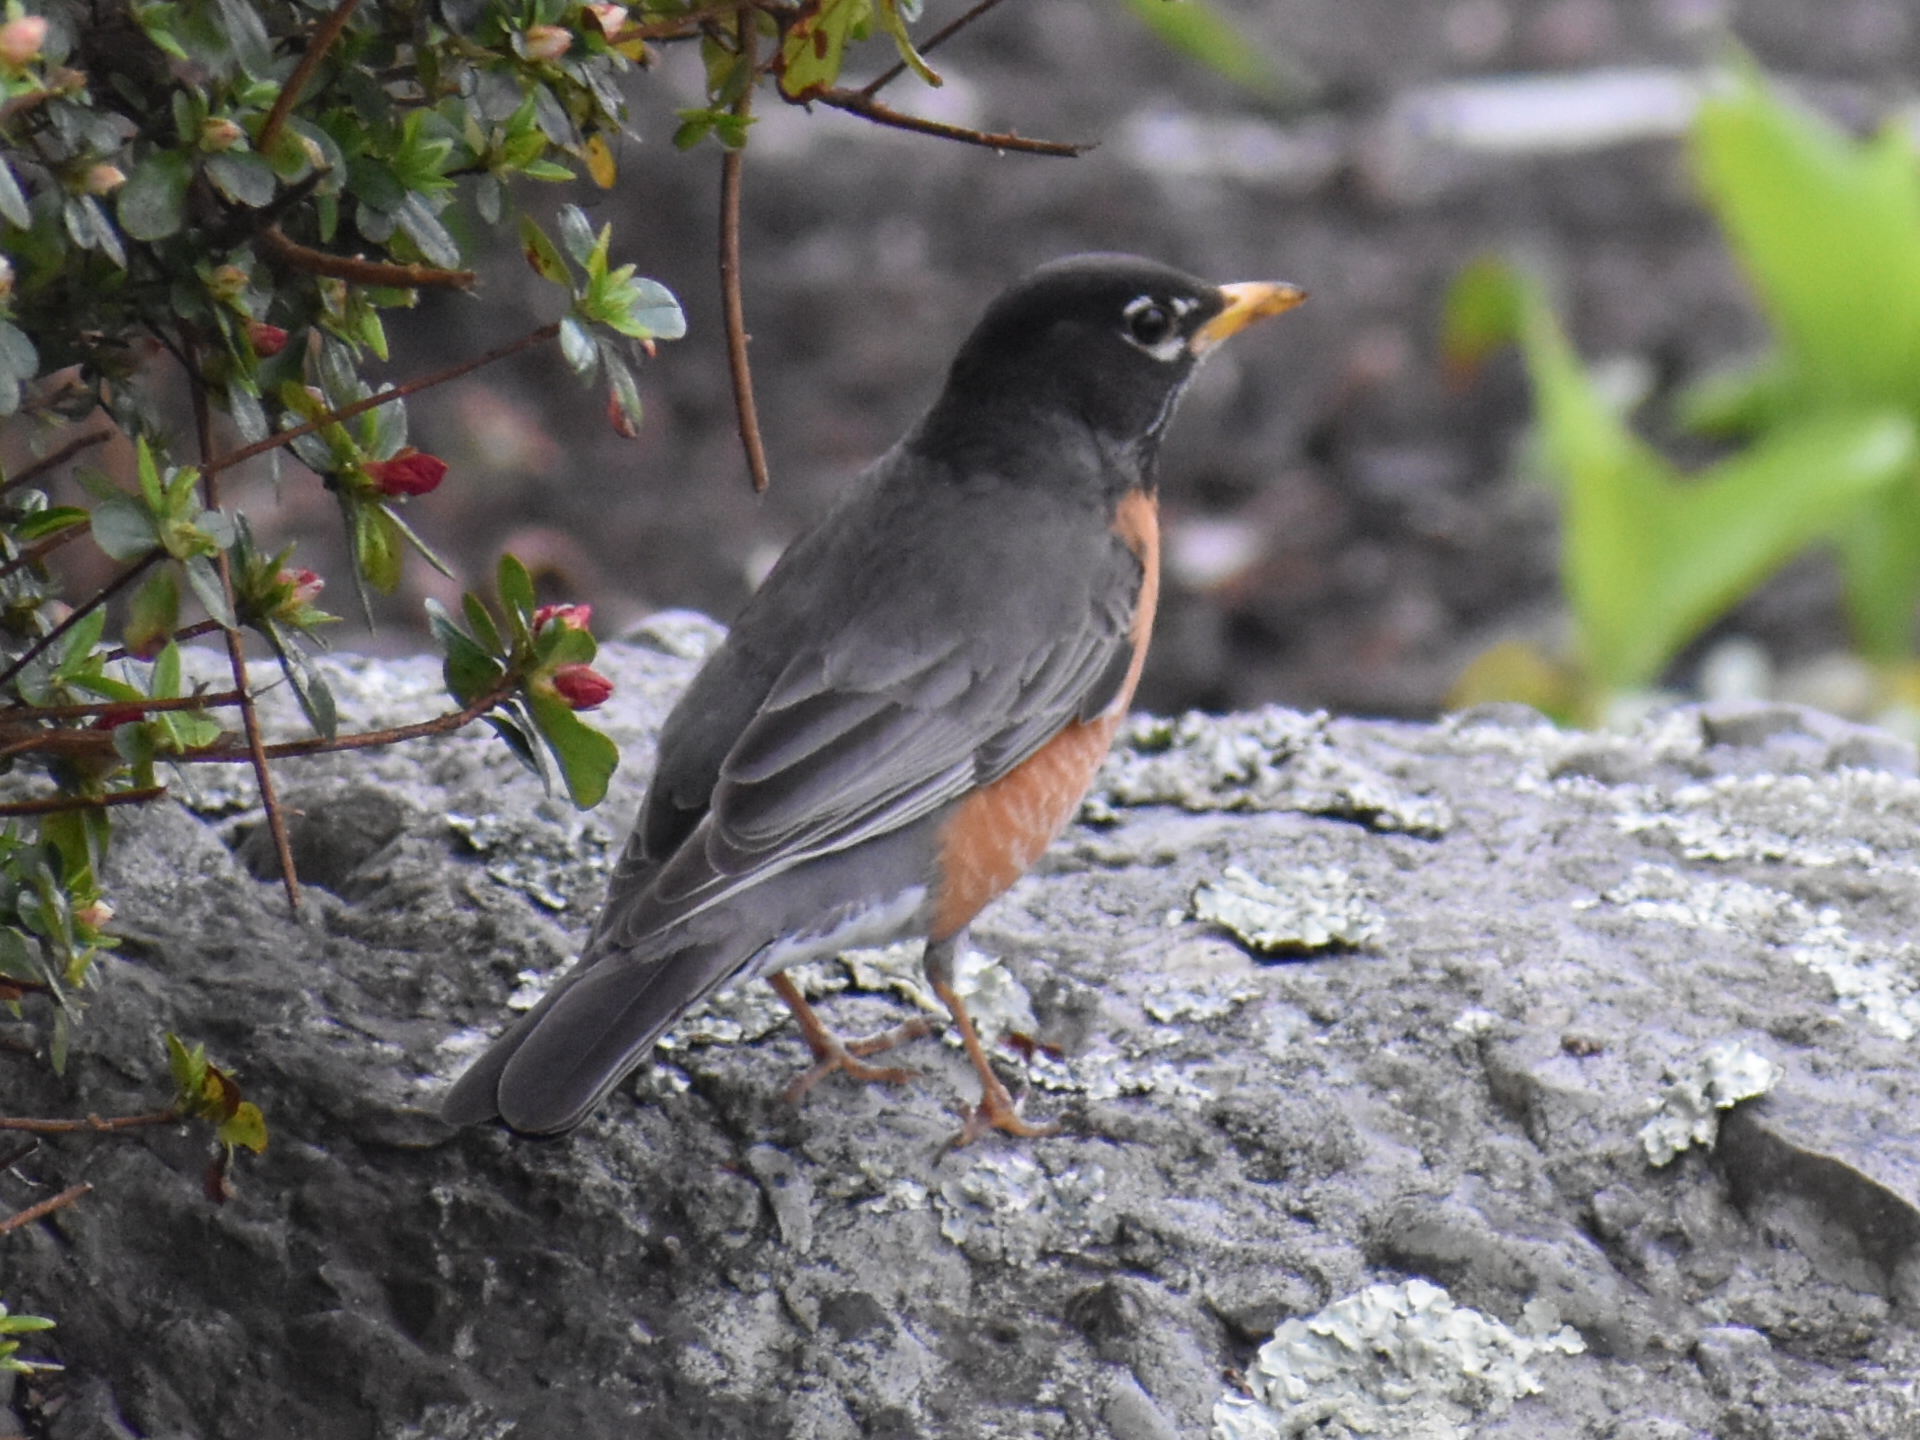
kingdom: Animalia
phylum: Chordata
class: Aves
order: Passeriformes
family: Turdidae
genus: Turdus
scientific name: Turdus migratorius
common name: American robin
